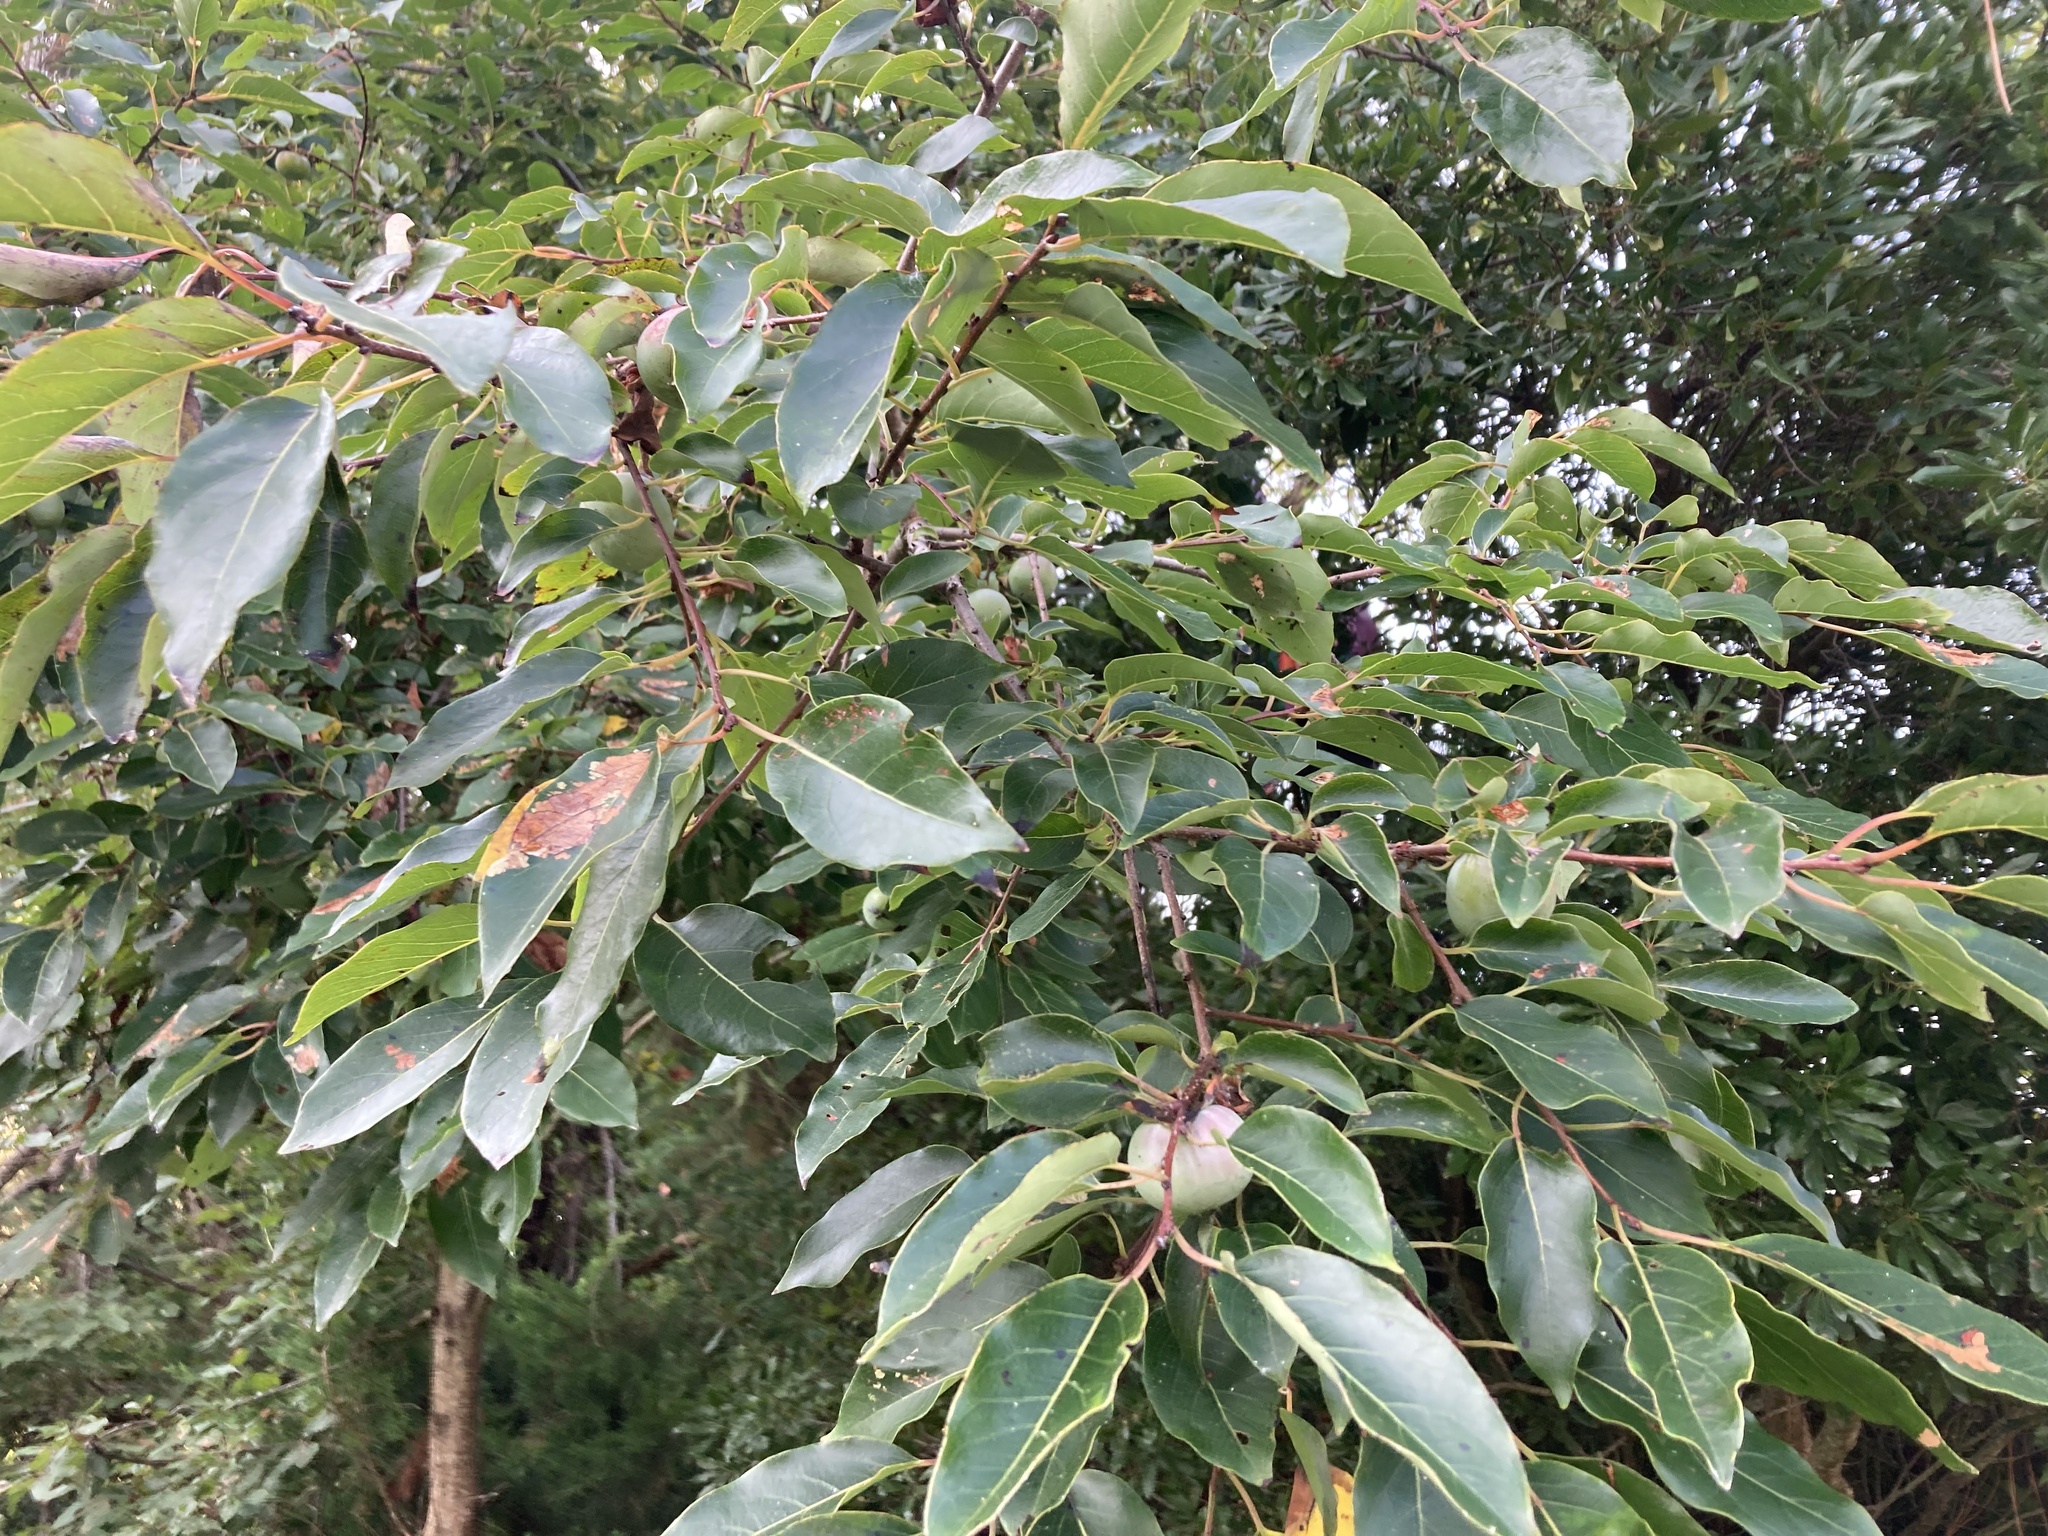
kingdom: Plantae
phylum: Tracheophyta
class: Magnoliopsida
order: Ericales
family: Ebenaceae
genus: Diospyros
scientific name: Diospyros virginiana
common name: Persimmon
